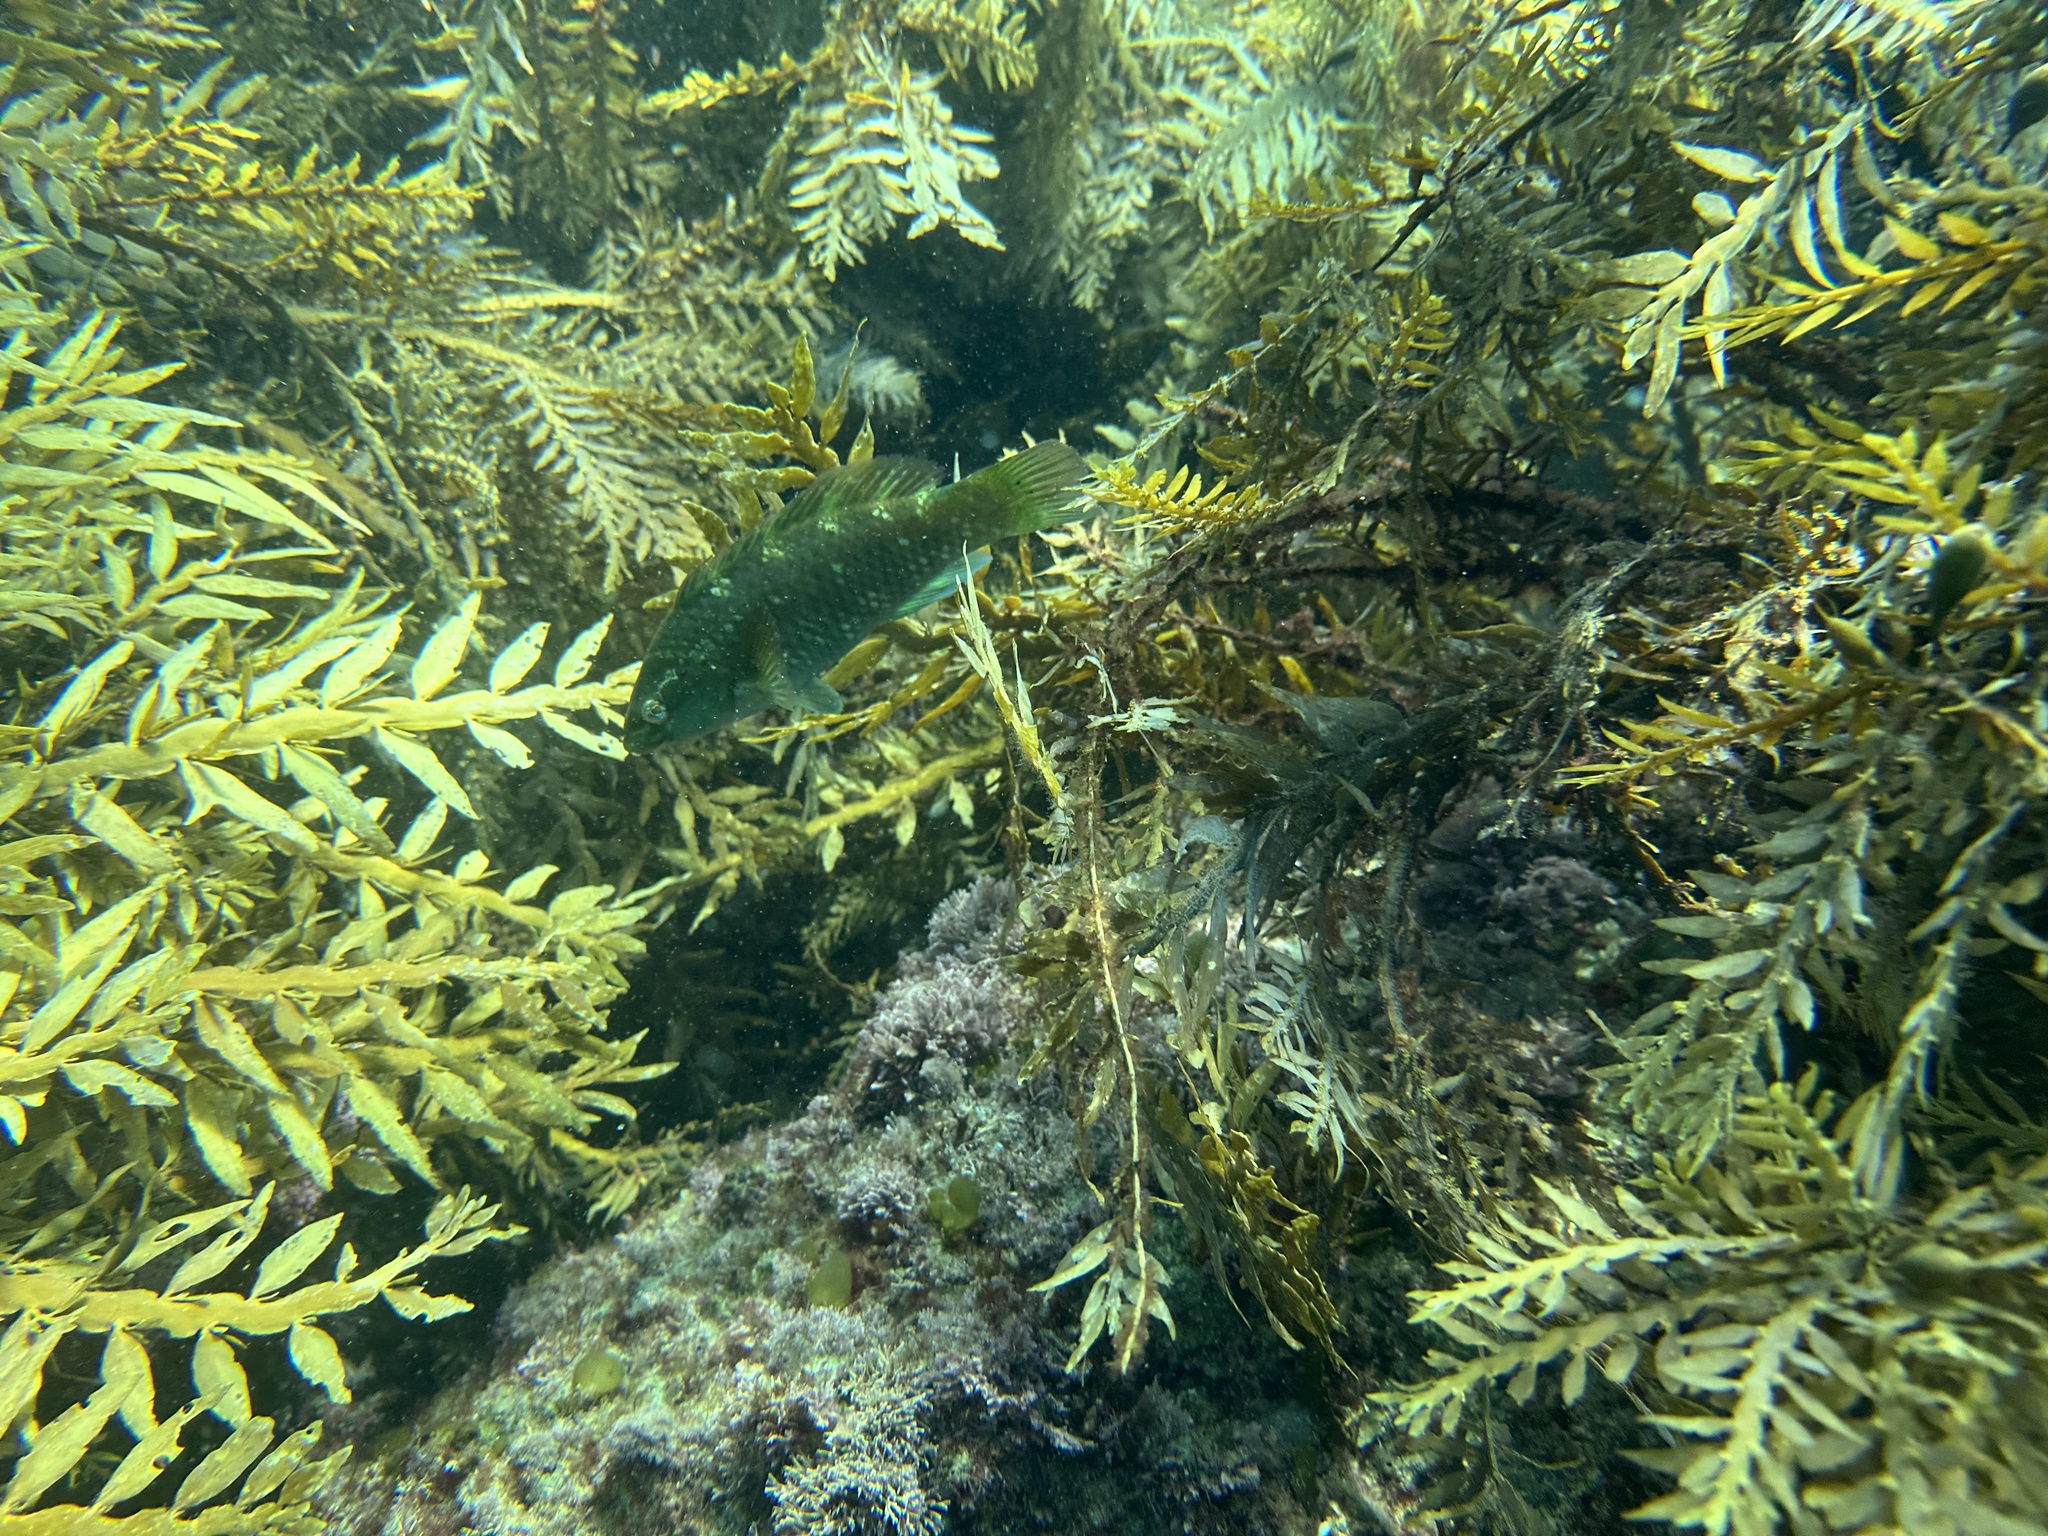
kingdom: Animalia
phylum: Chordata
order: Perciformes
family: Labridae
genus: Notolabrus
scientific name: Notolabrus fucicola
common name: Banded parrotfish
